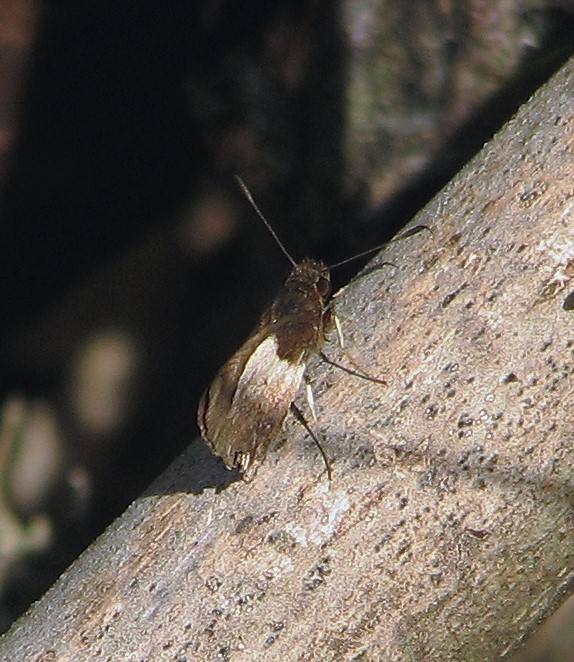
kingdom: Animalia
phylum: Arthropoda
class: Insecta
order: Lepidoptera
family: Hesperiidae
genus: Moeris
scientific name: Moeris remus
